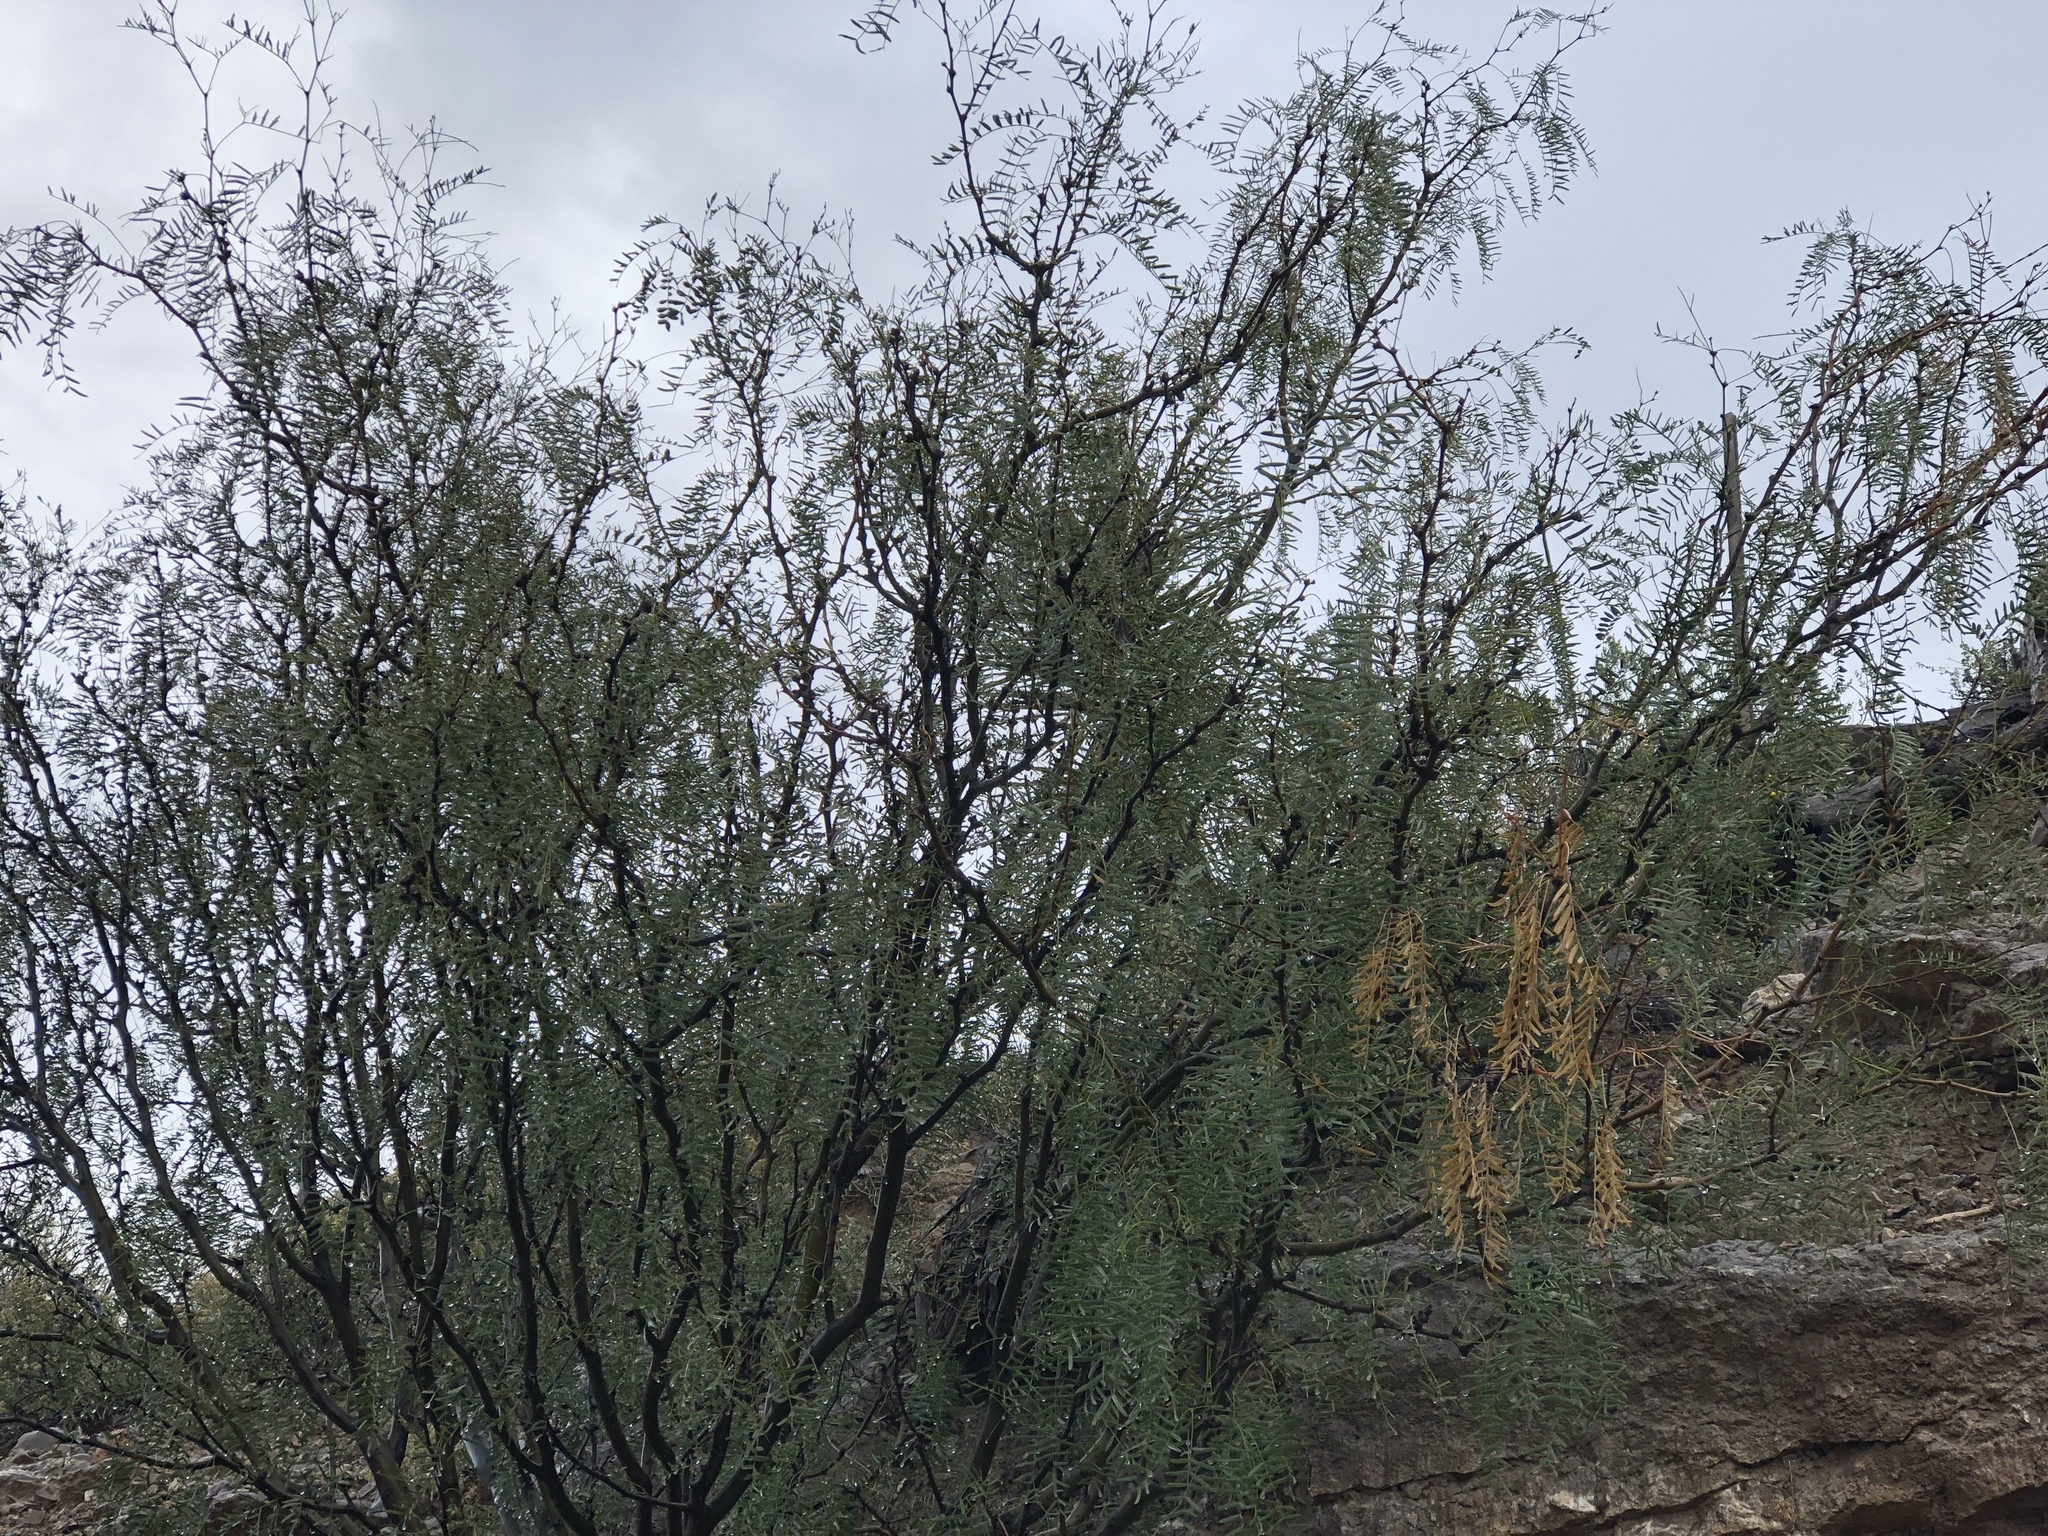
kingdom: Plantae
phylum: Tracheophyta
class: Magnoliopsida
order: Fabales
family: Fabaceae
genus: Prosopis
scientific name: Prosopis glandulosa
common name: Honey mesquite
